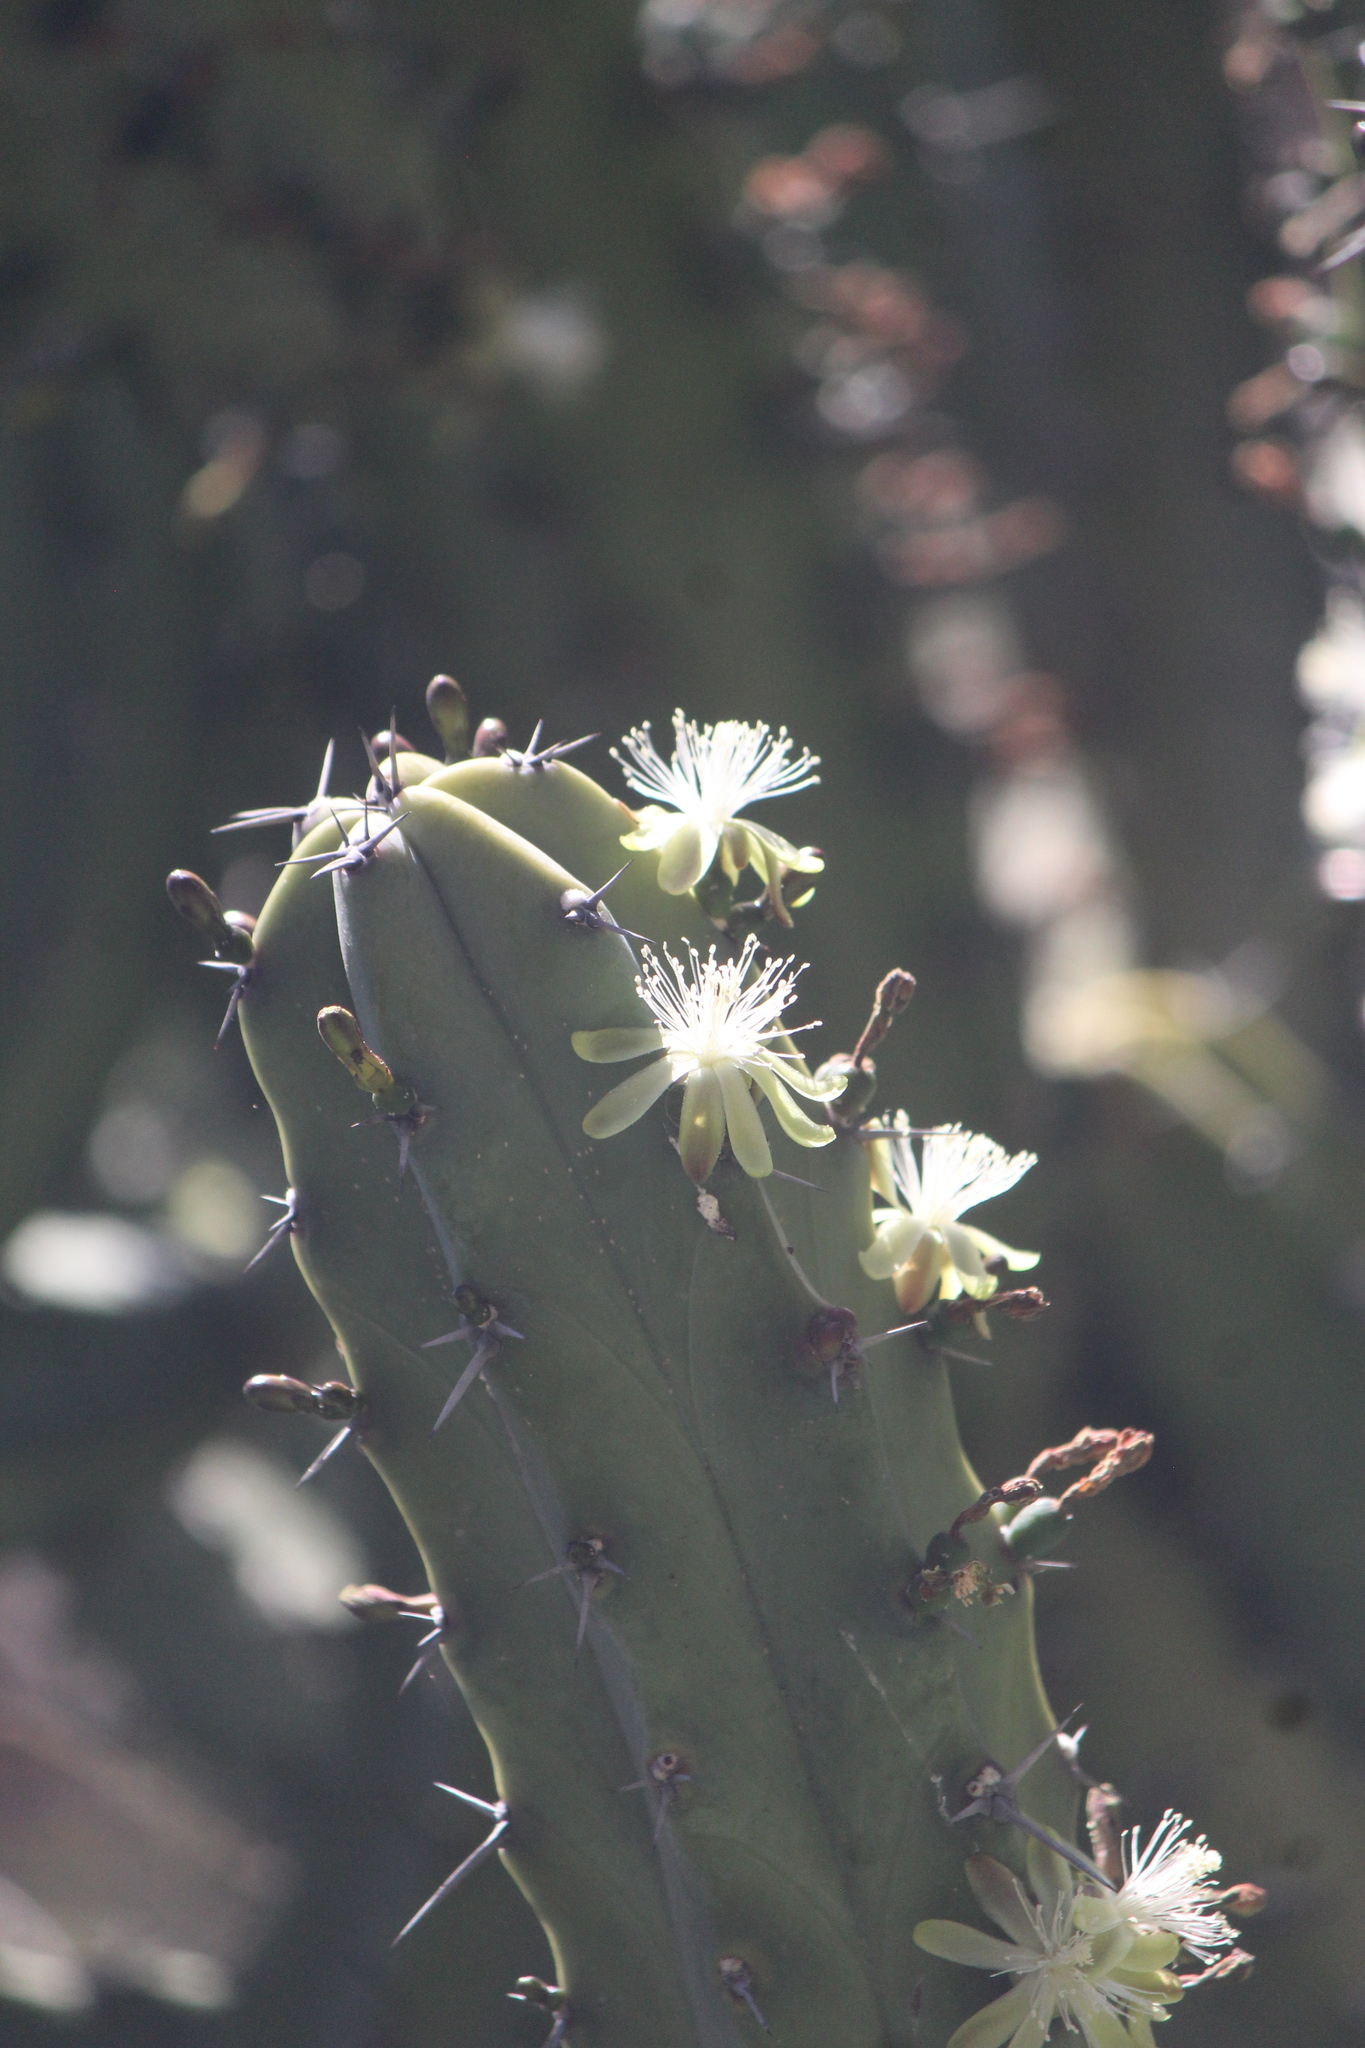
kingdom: Plantae
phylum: Tracheophyta
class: Magnoliopsida
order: Caryophyllales
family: Cactaceae
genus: Myrtillocactus
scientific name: Myrtillocactus geometrizans
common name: Bilberry cactus
